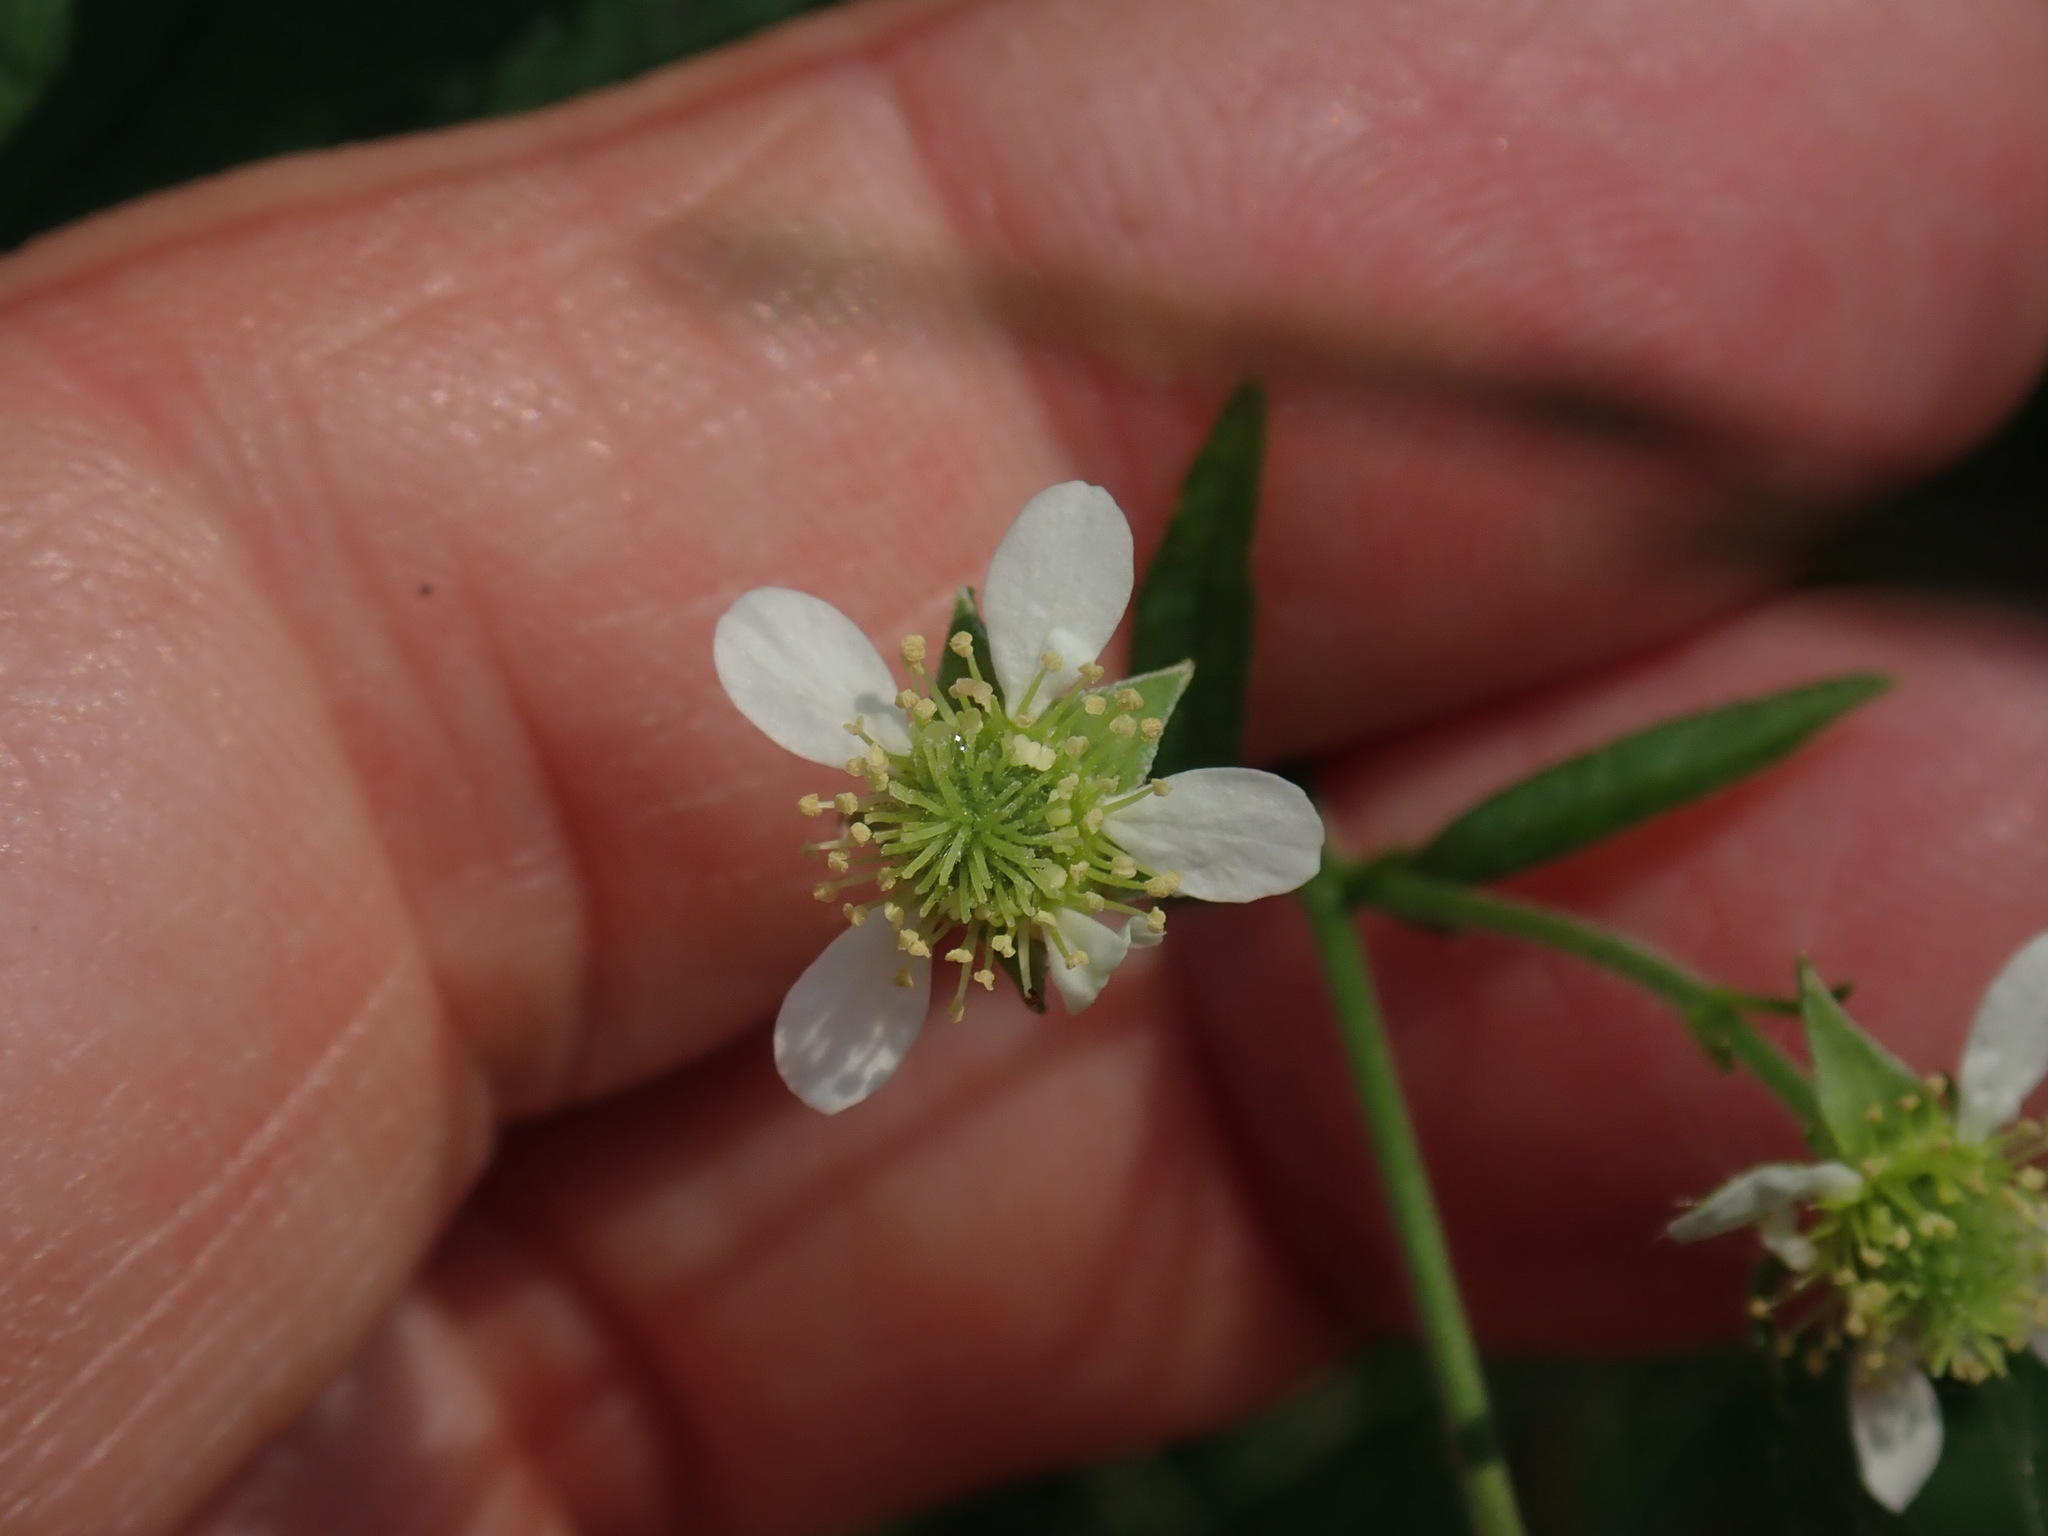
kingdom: Plantae
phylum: Tracheophyta
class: Magnoliopsida
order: Rosales
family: Rosaceae
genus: Geum
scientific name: Geum canadense
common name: White avens
